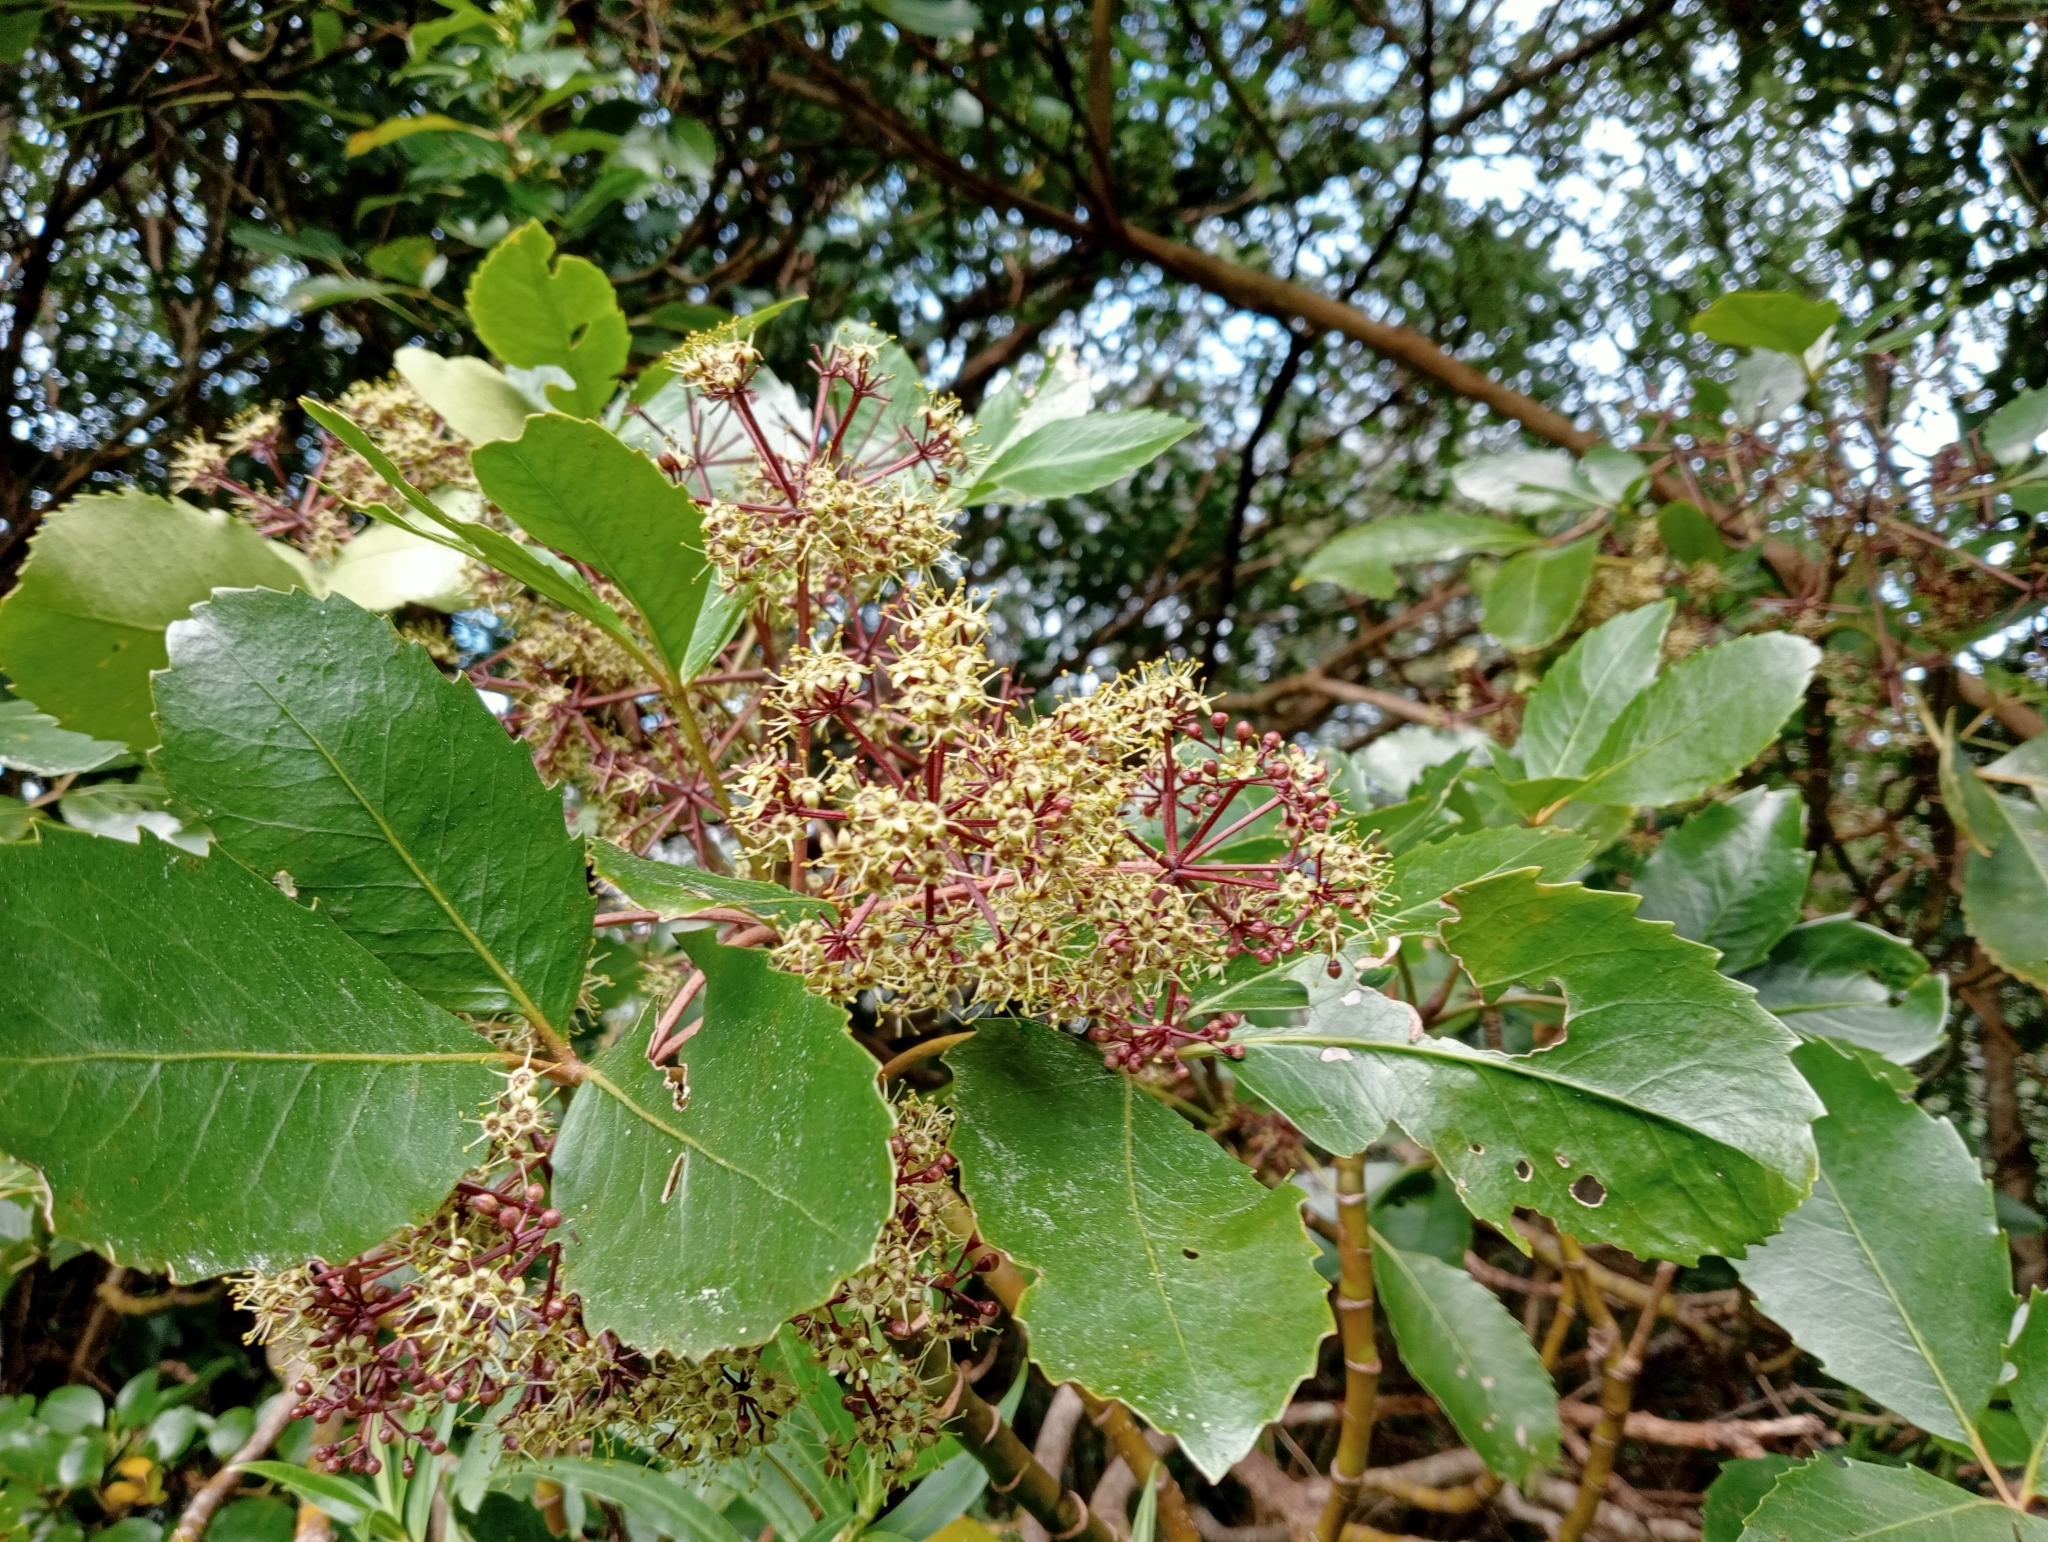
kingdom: Plantae
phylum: Tracheophyta
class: Magnoliopsida
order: Apiales
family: Araliaceae
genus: Neopanax
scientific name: Neopanax colensoi
